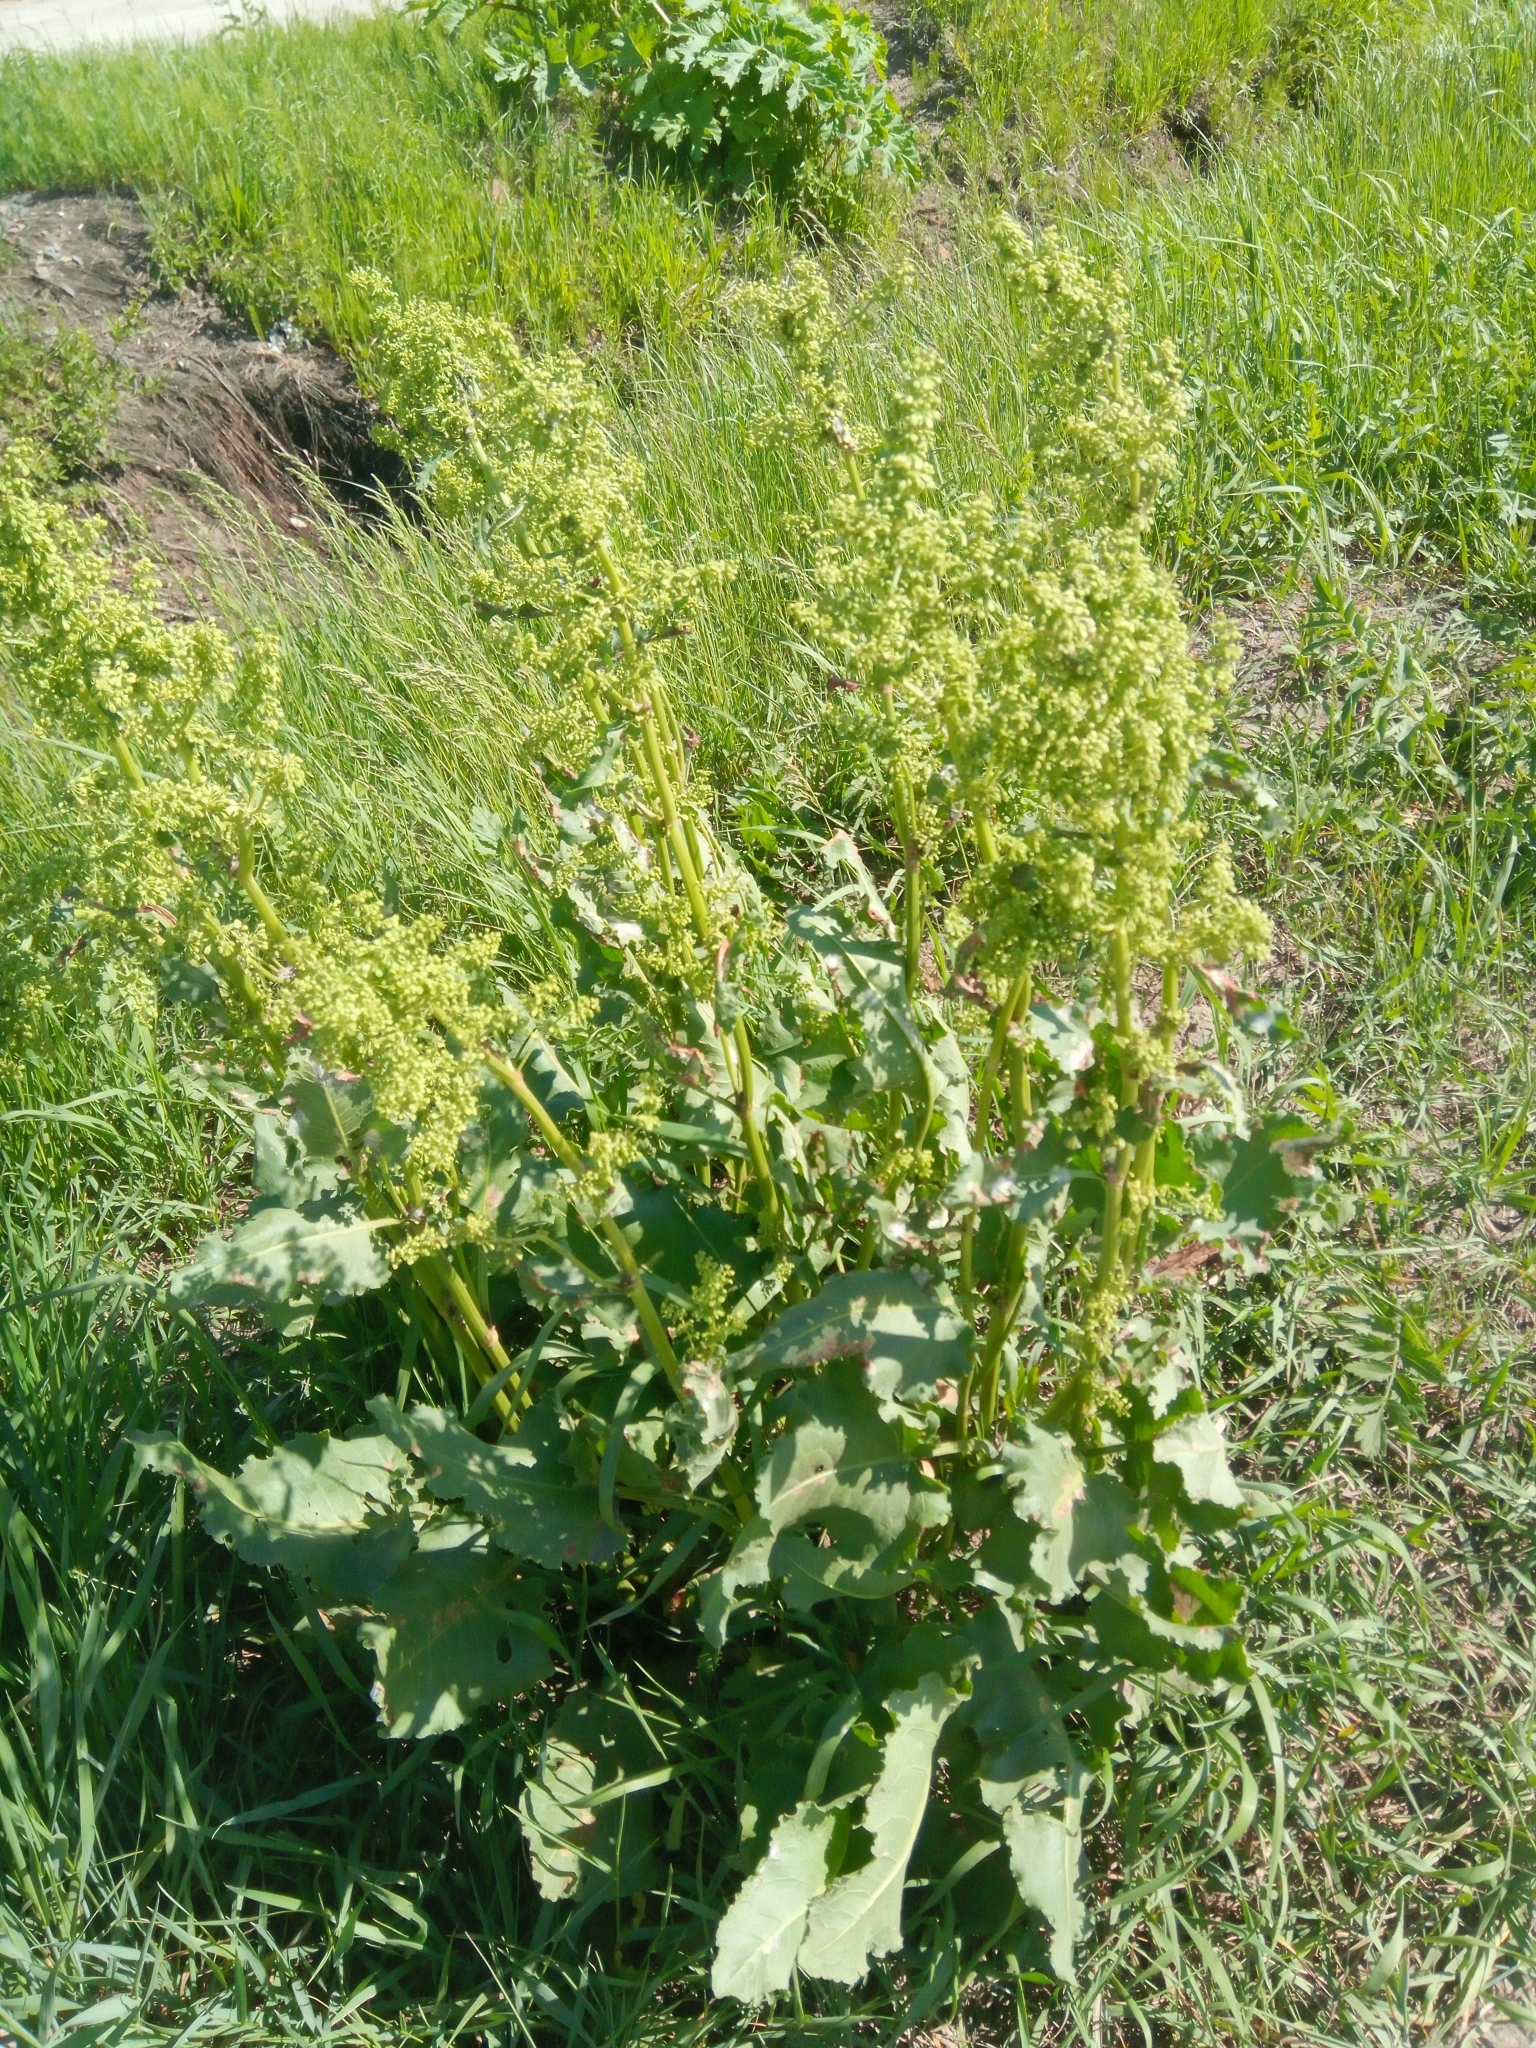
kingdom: Plantae
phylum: Tracheophyta
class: Magnoliopsida
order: Caryophyllales
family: Polygonaceae
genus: Rumex
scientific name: Rumex confertus
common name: Russian dock
